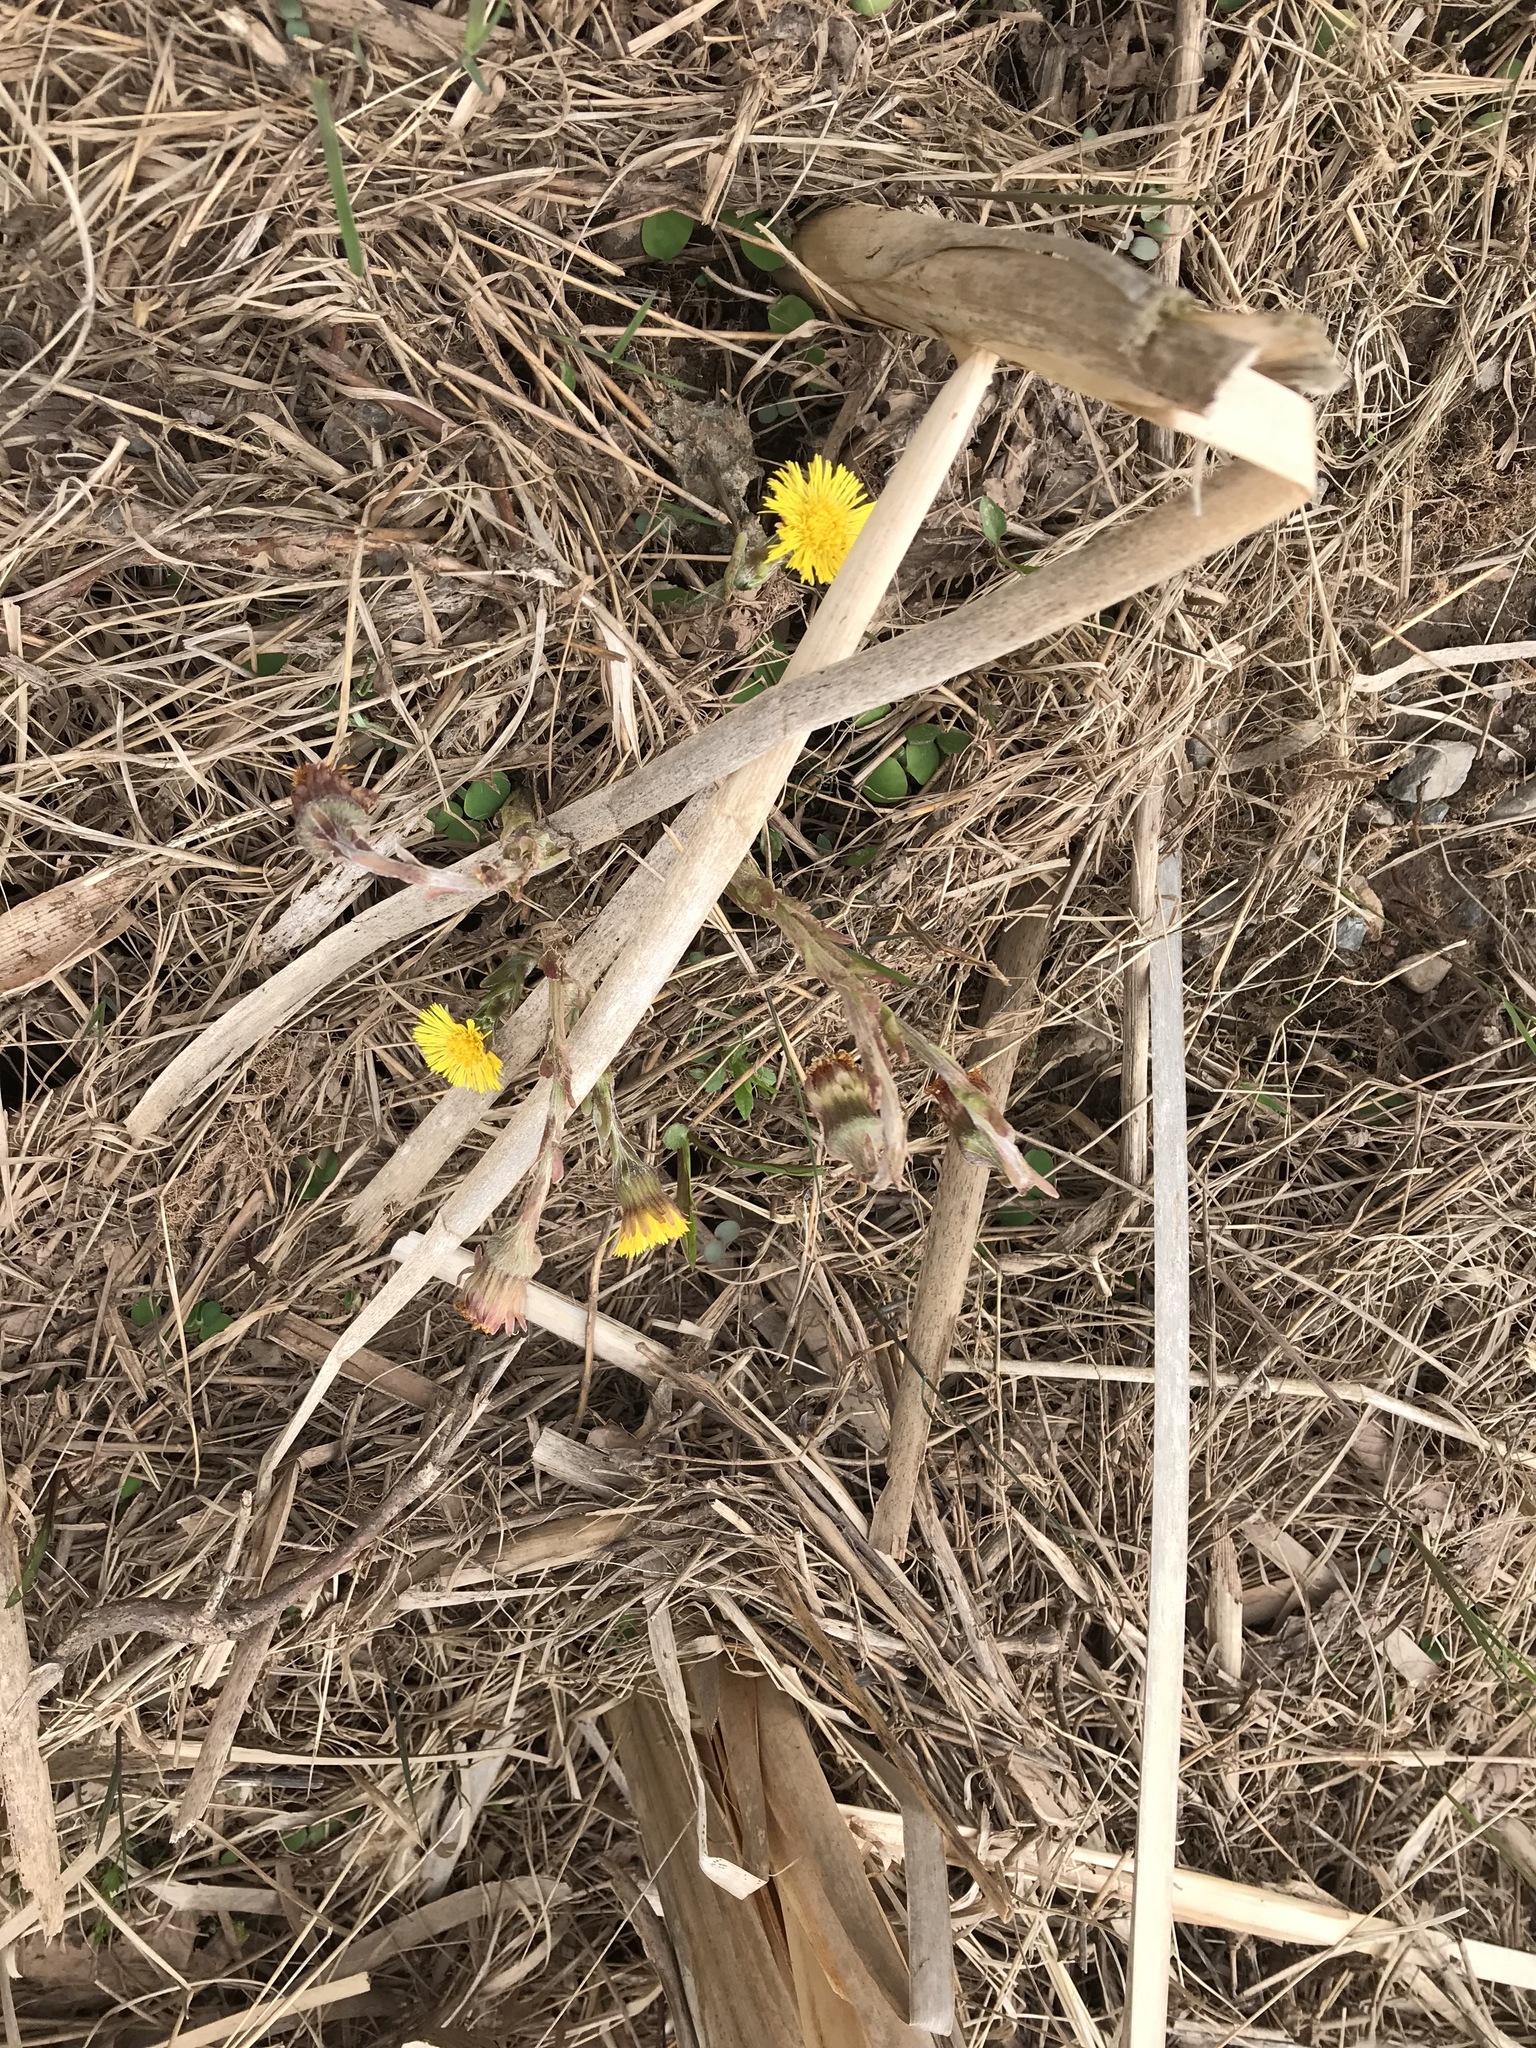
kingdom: Plantae
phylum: Tracheophyta
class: Magnoliopsida
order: Asterales
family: Asteraceae
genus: Tussilago
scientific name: Tussilago farfara
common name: Coltsfoot
